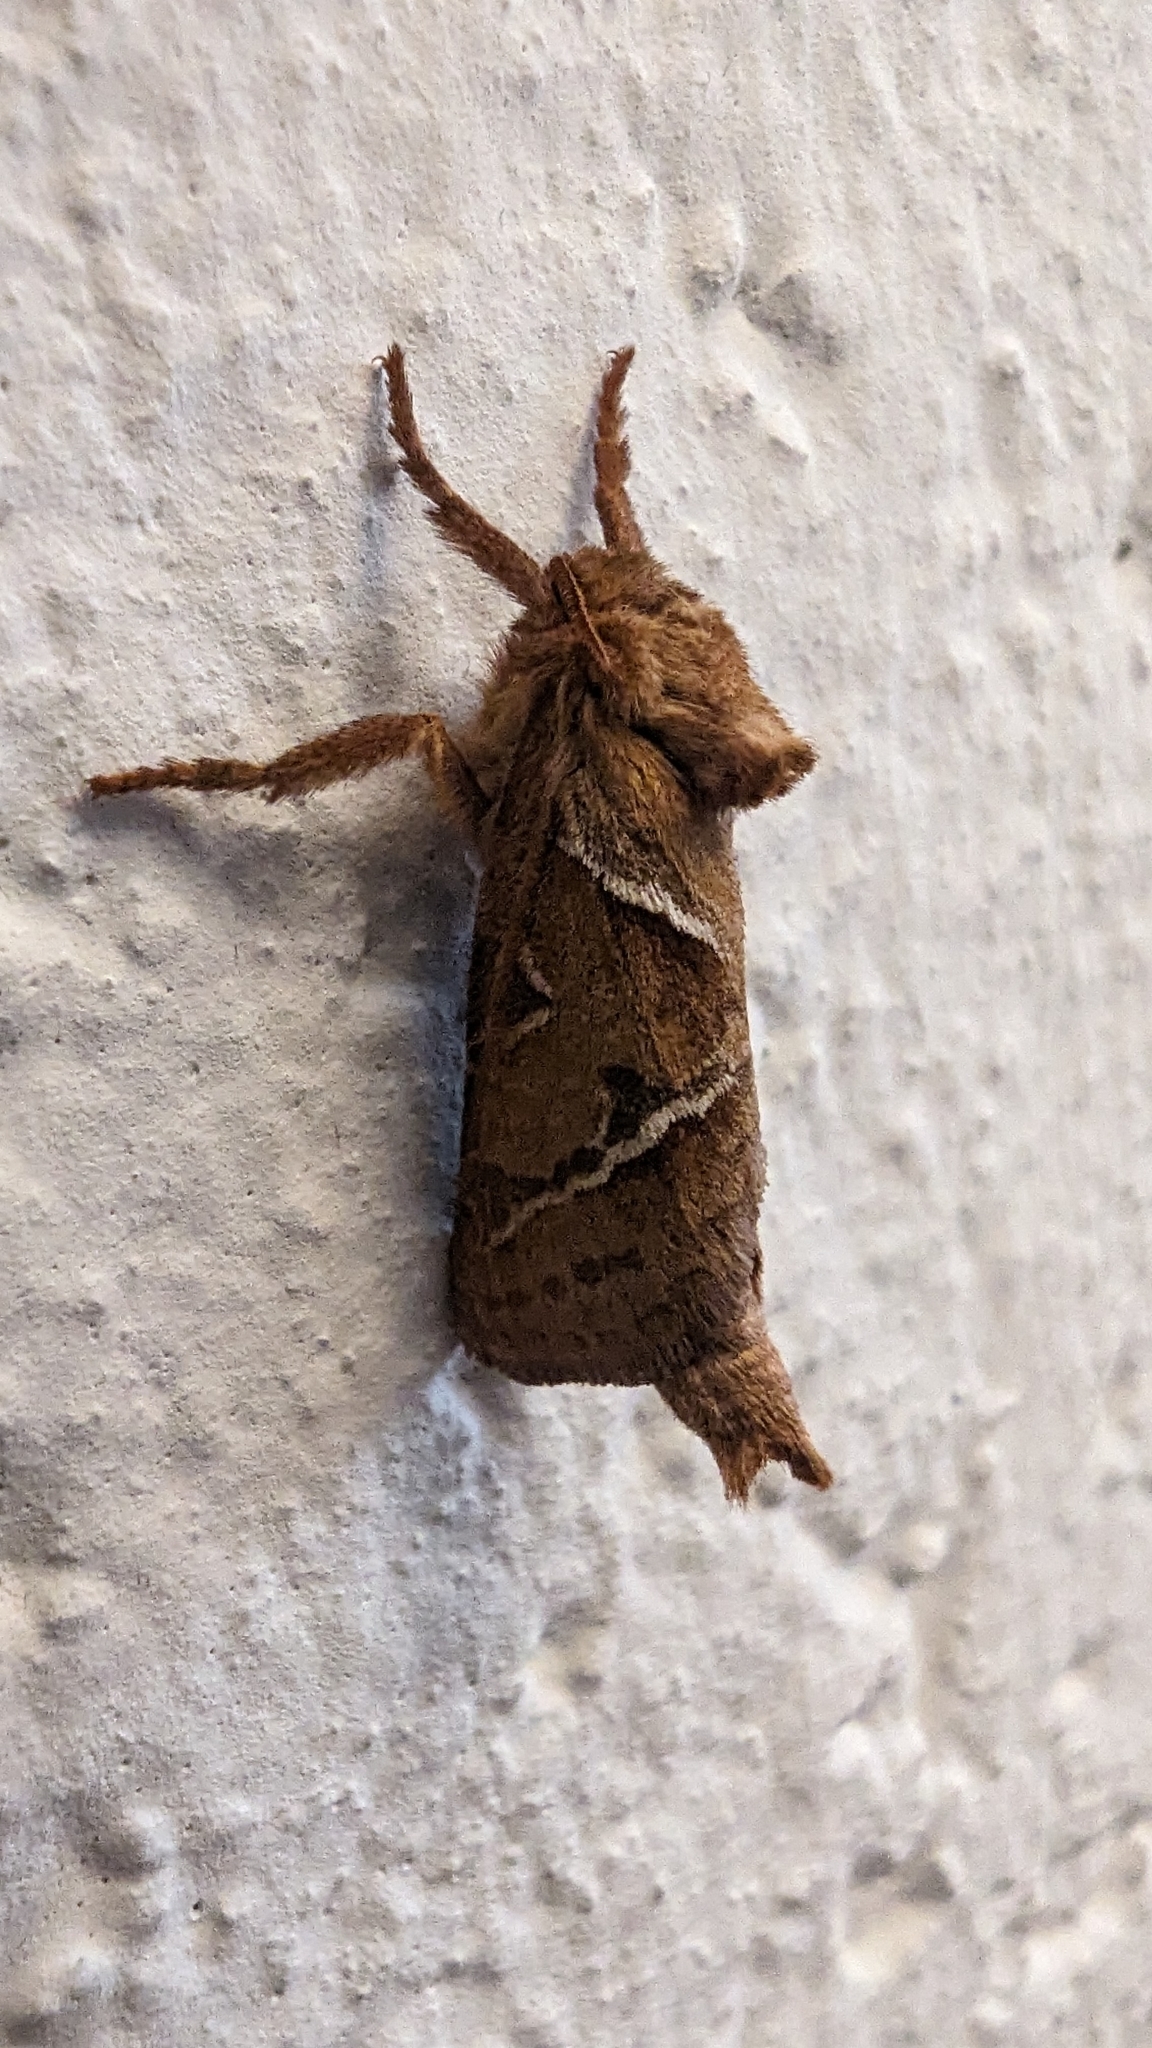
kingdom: Animalia
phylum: Arthropoda
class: Insecta
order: Lepidoptera
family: Hepialidae
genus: Triodia
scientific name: Triodia sylvina
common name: Orange swift
